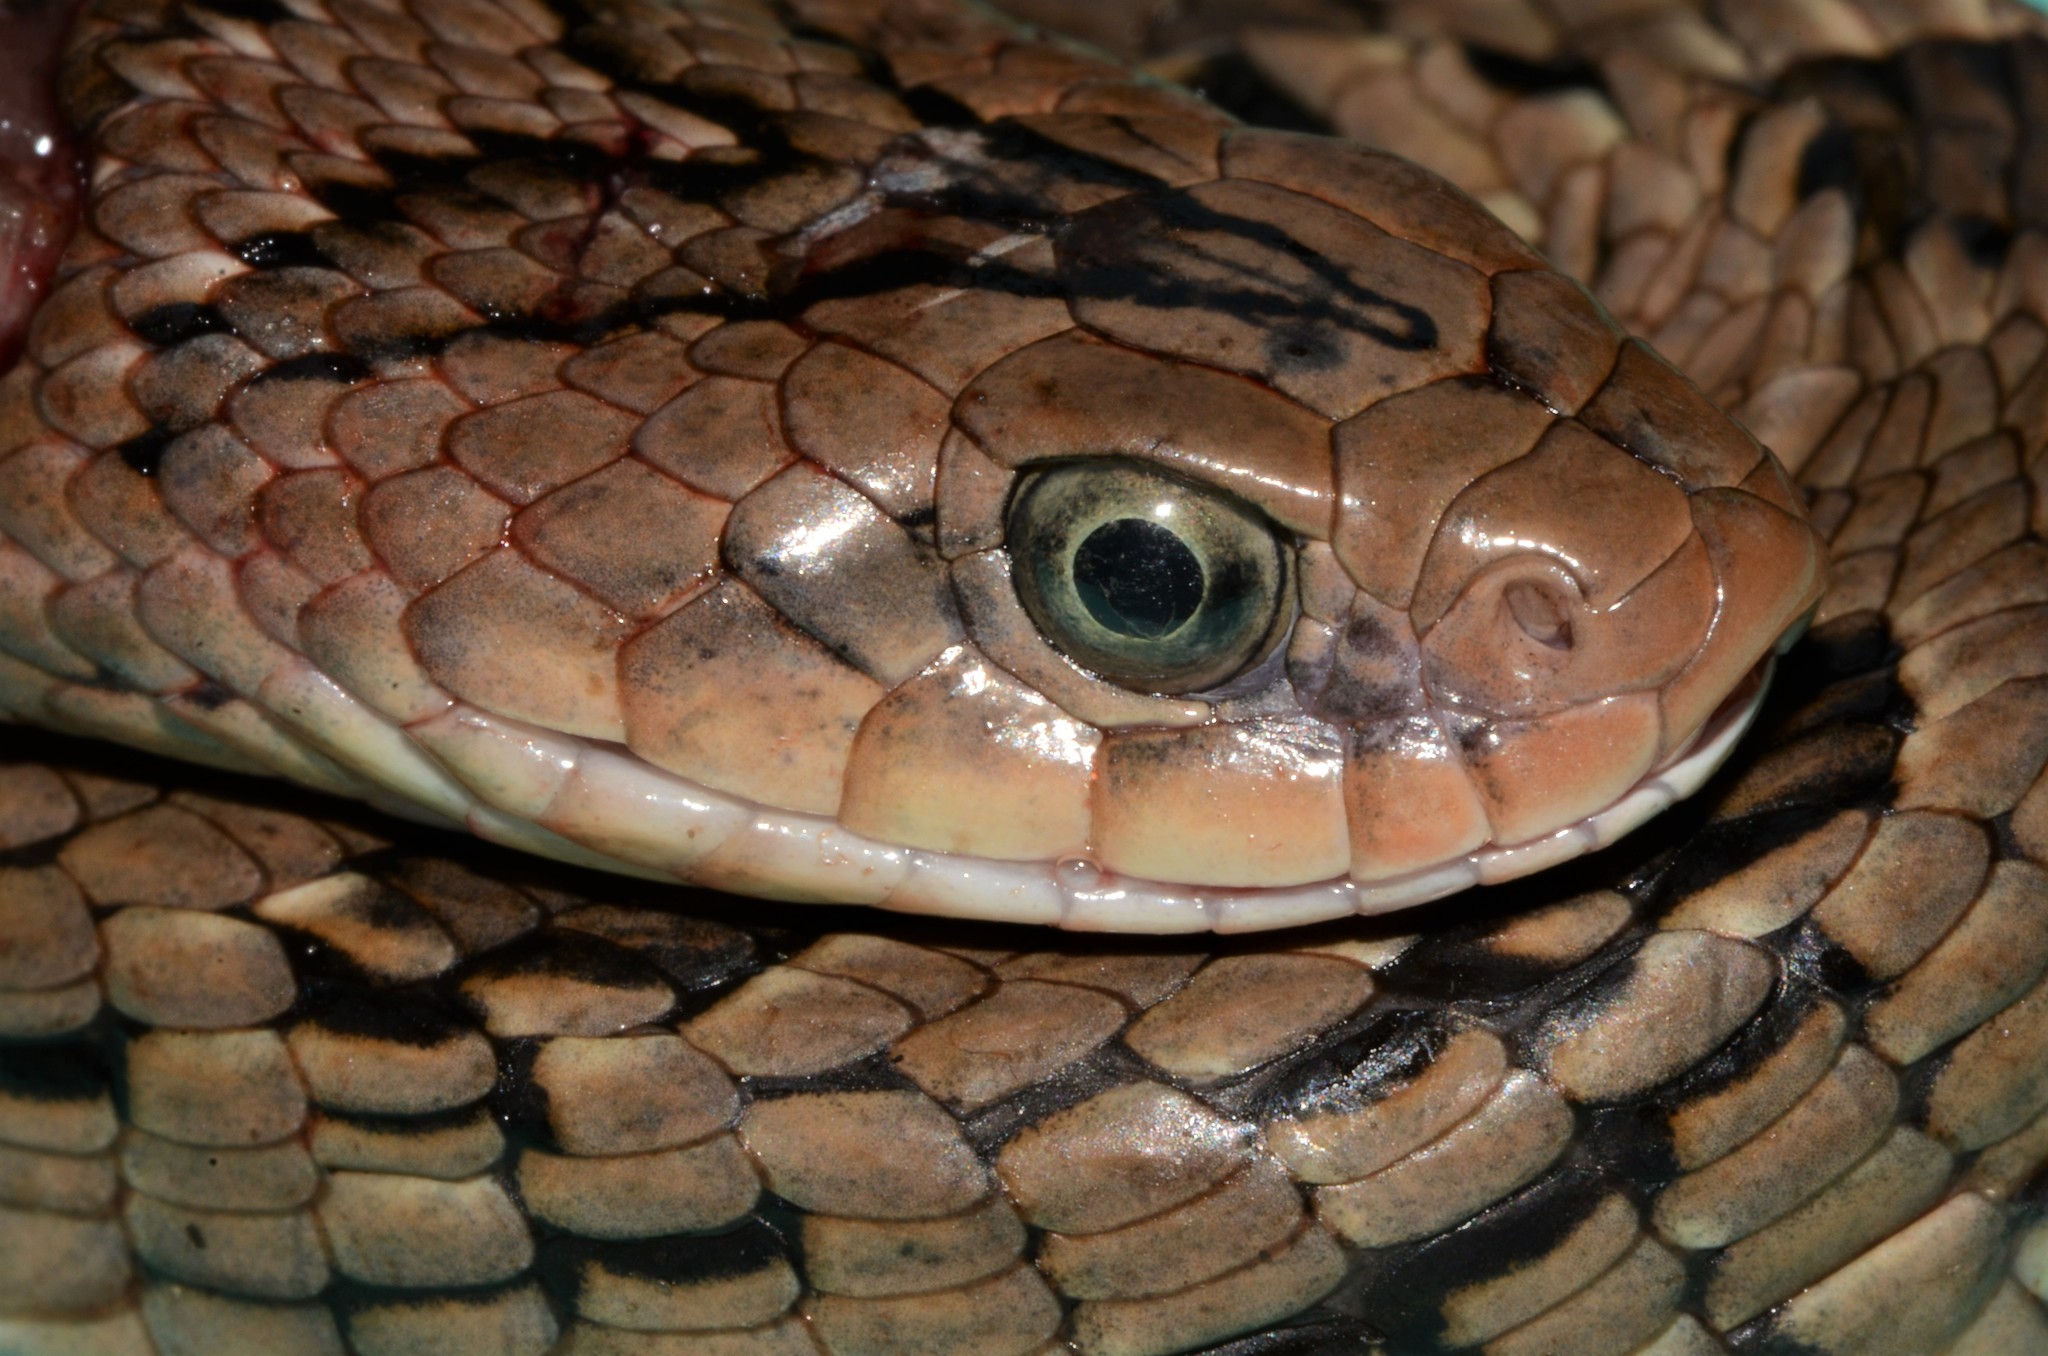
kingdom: Animalia
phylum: Chordata
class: Squamata
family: Viperidae
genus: Causus
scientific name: Causus maculatus
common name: Spotted night adder
